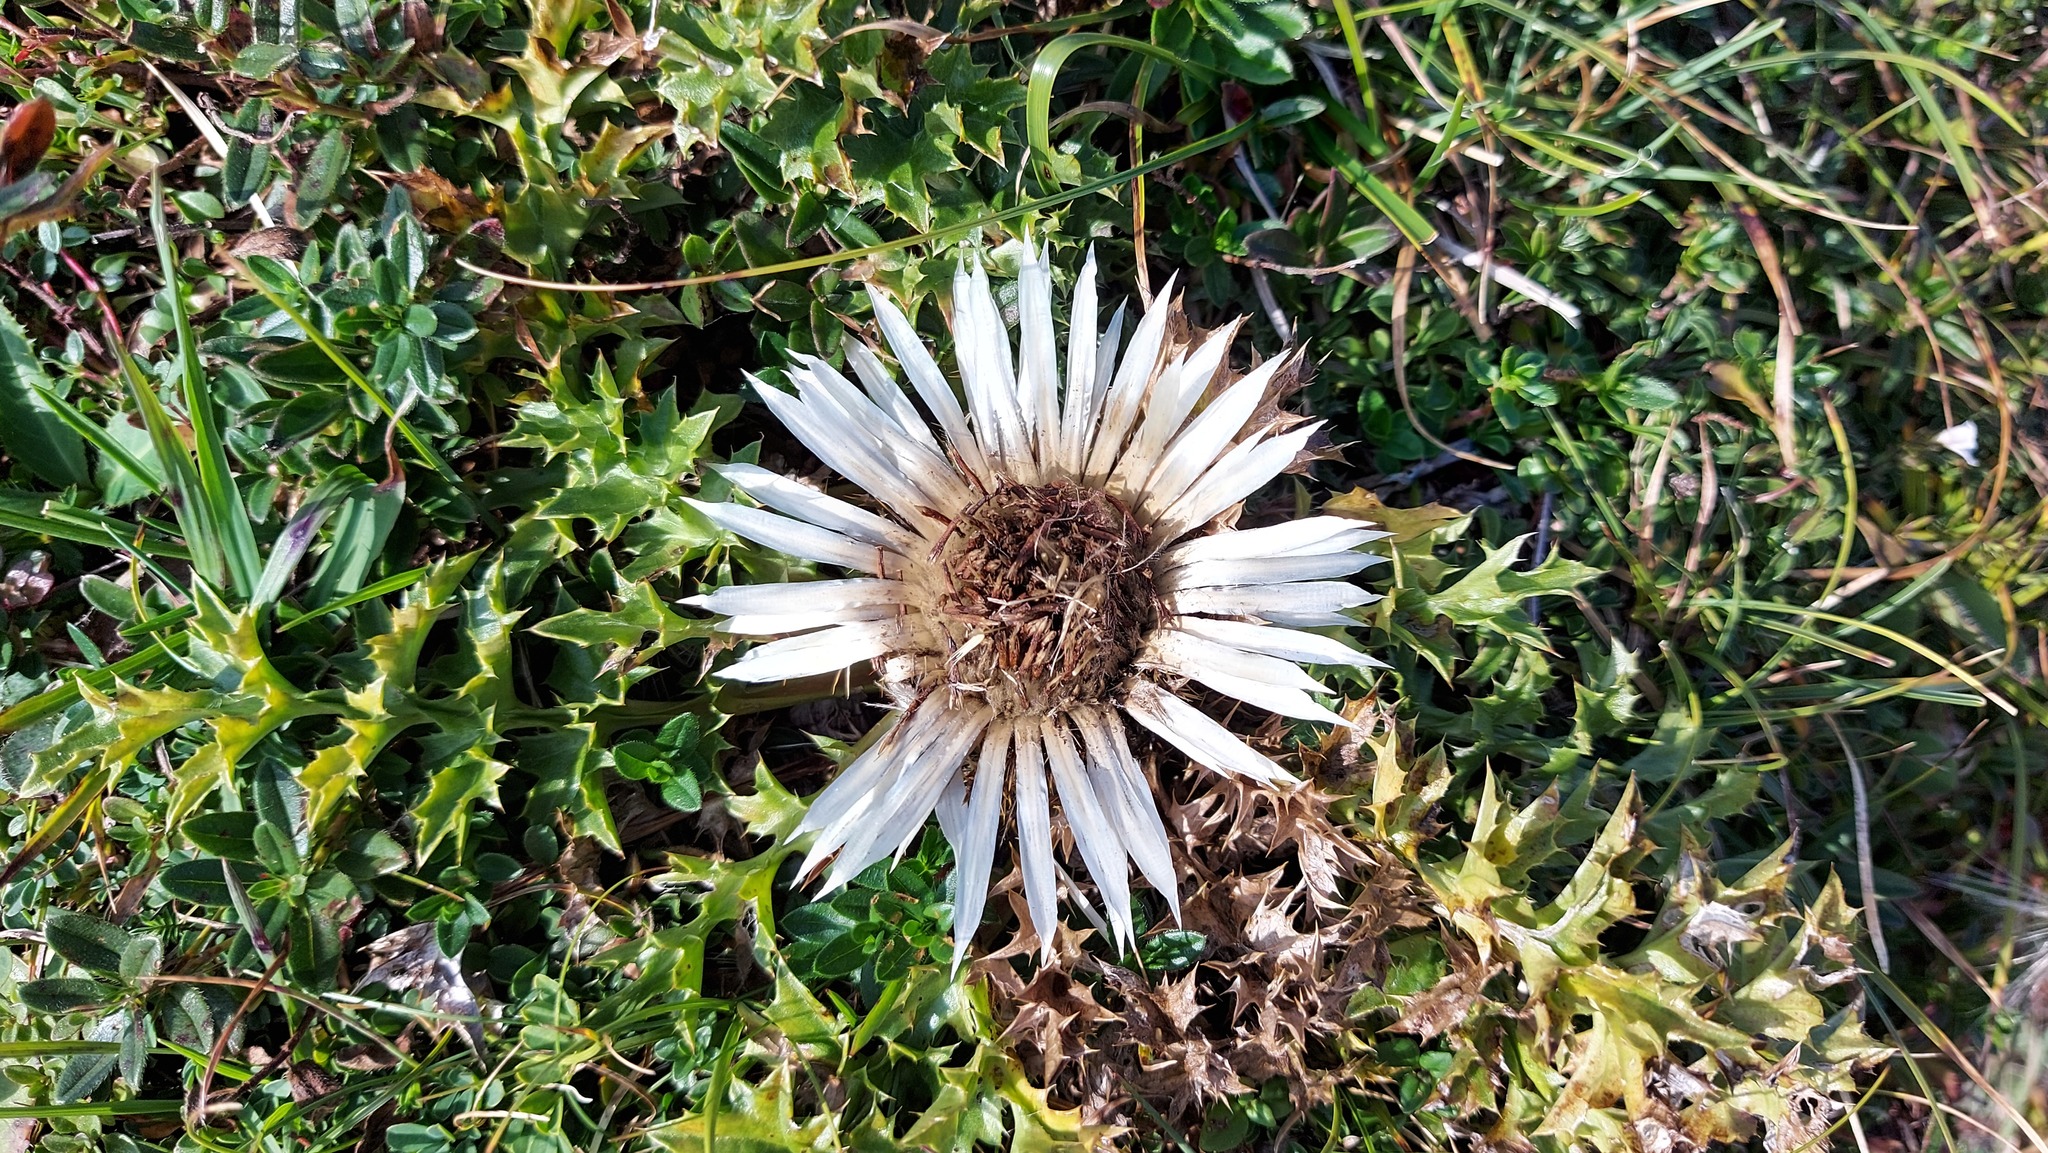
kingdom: Plantae
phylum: Tracheophyta
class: Magnoliopsida
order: Asterales
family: Asteraceae
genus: Carlina
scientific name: Carlina acaulis
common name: Stemless carline thistle
